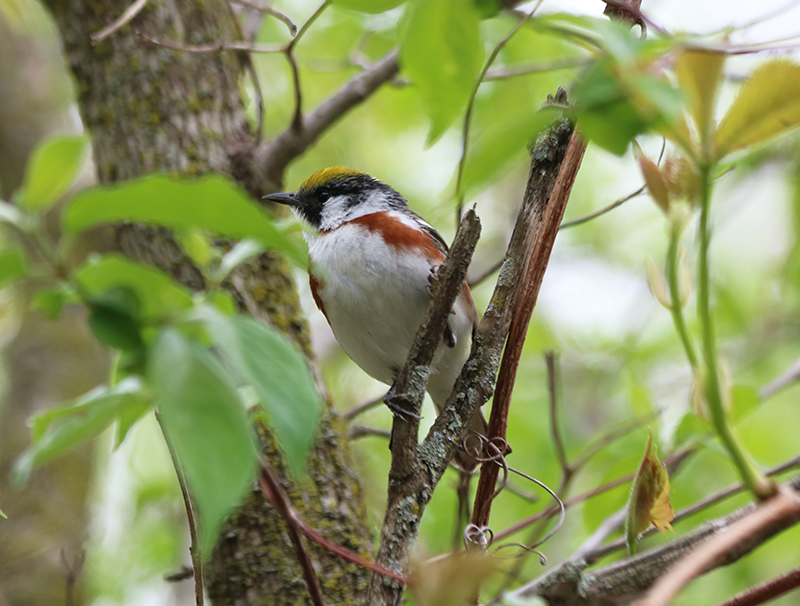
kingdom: Animalia
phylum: Chordata
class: Aves
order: Passeriformes
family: Parulidae
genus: Setophaga
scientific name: Setophaga pensylvanica
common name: Chestnut-sided warbler
